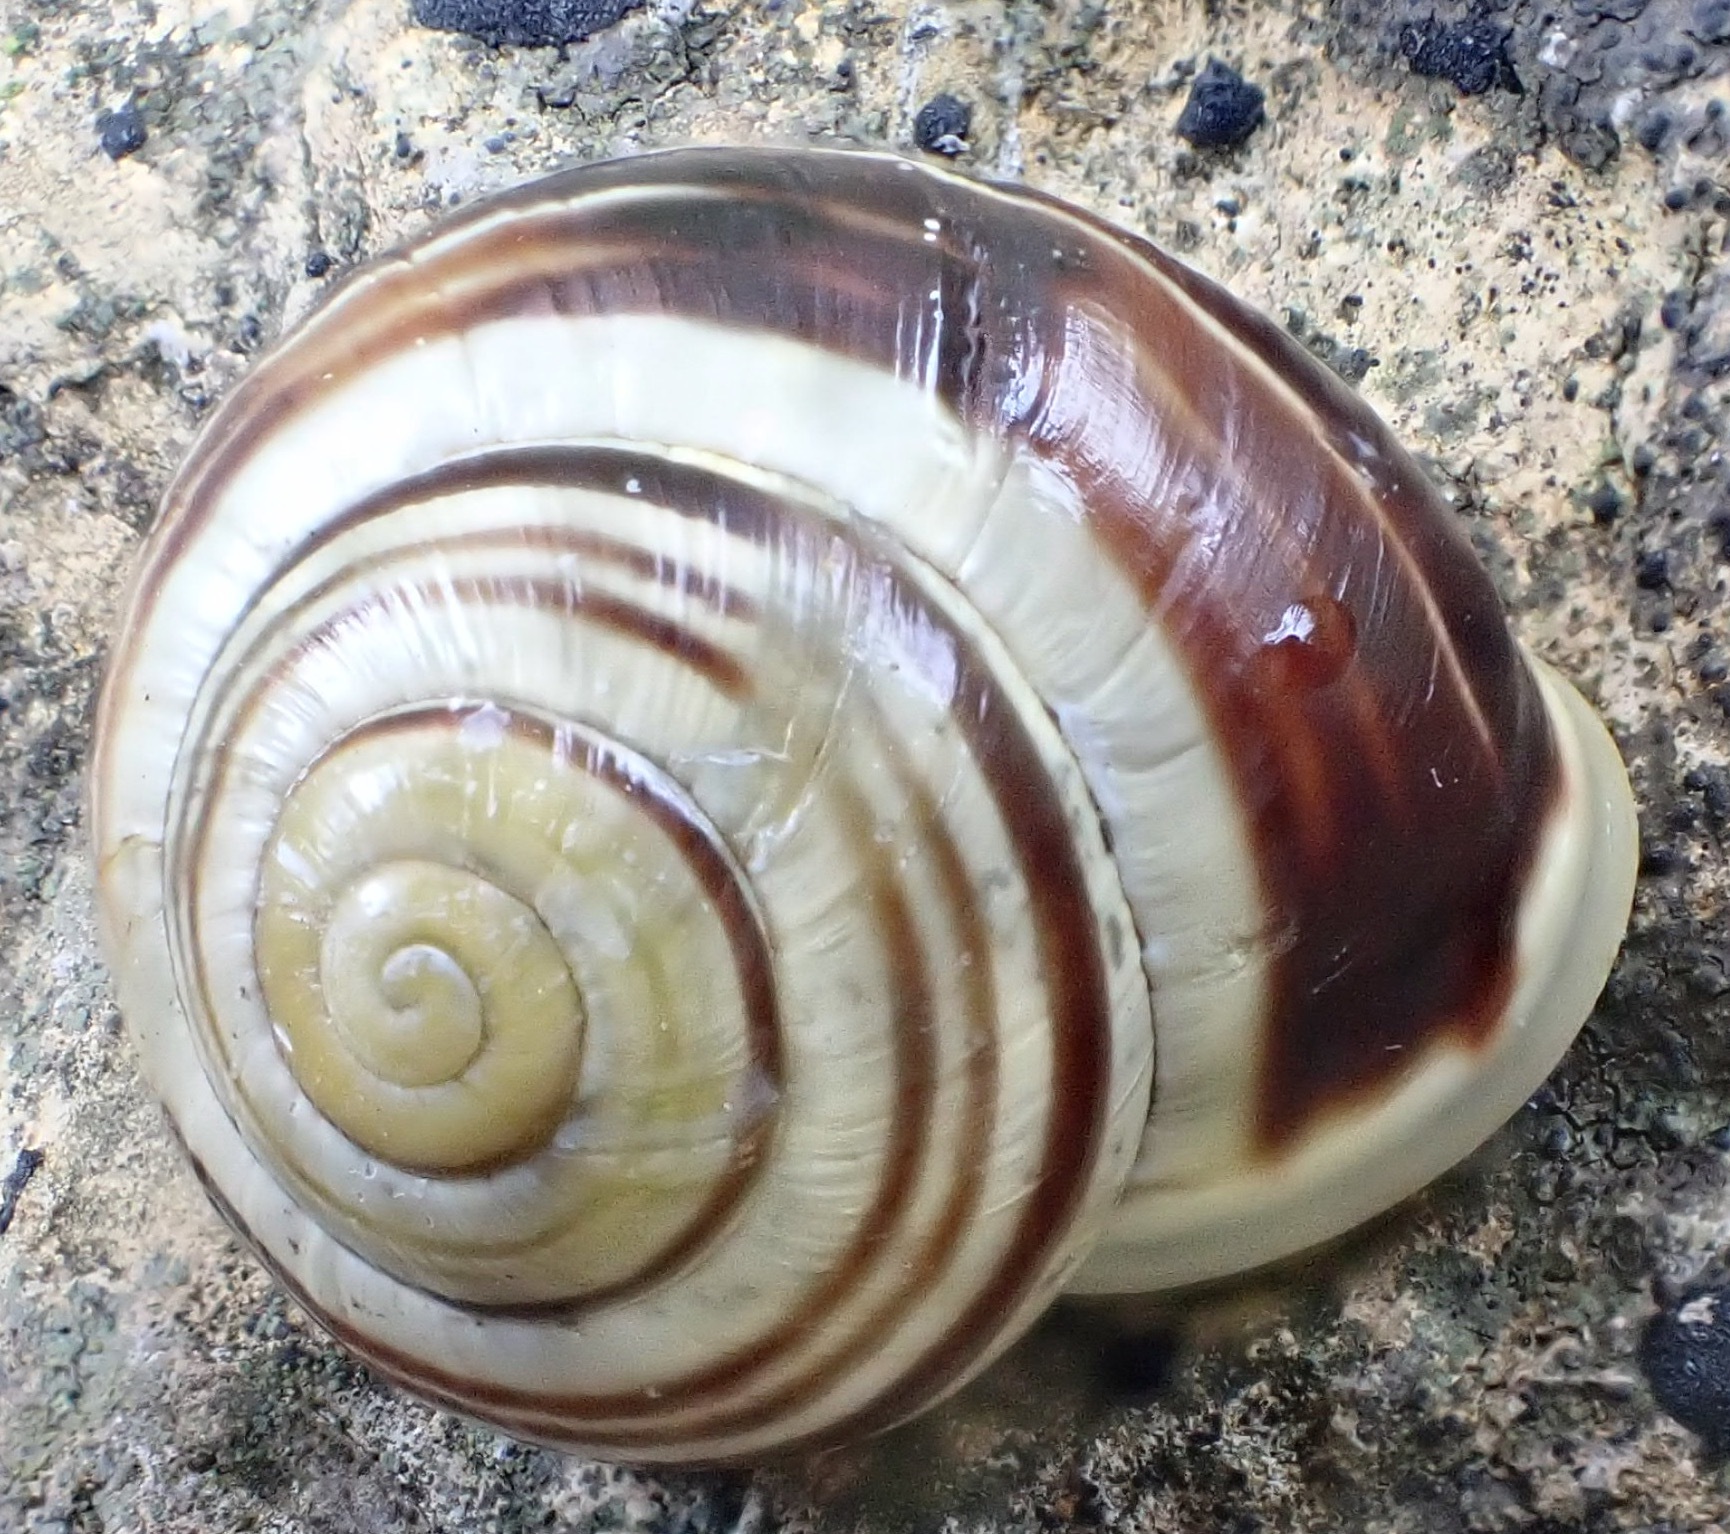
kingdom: Animalia
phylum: Mollusca
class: Gastropoda
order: Stylommatophora
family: Helicidae
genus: Cepaea
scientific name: Cepaea hortensis
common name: White-lip gardensnail
